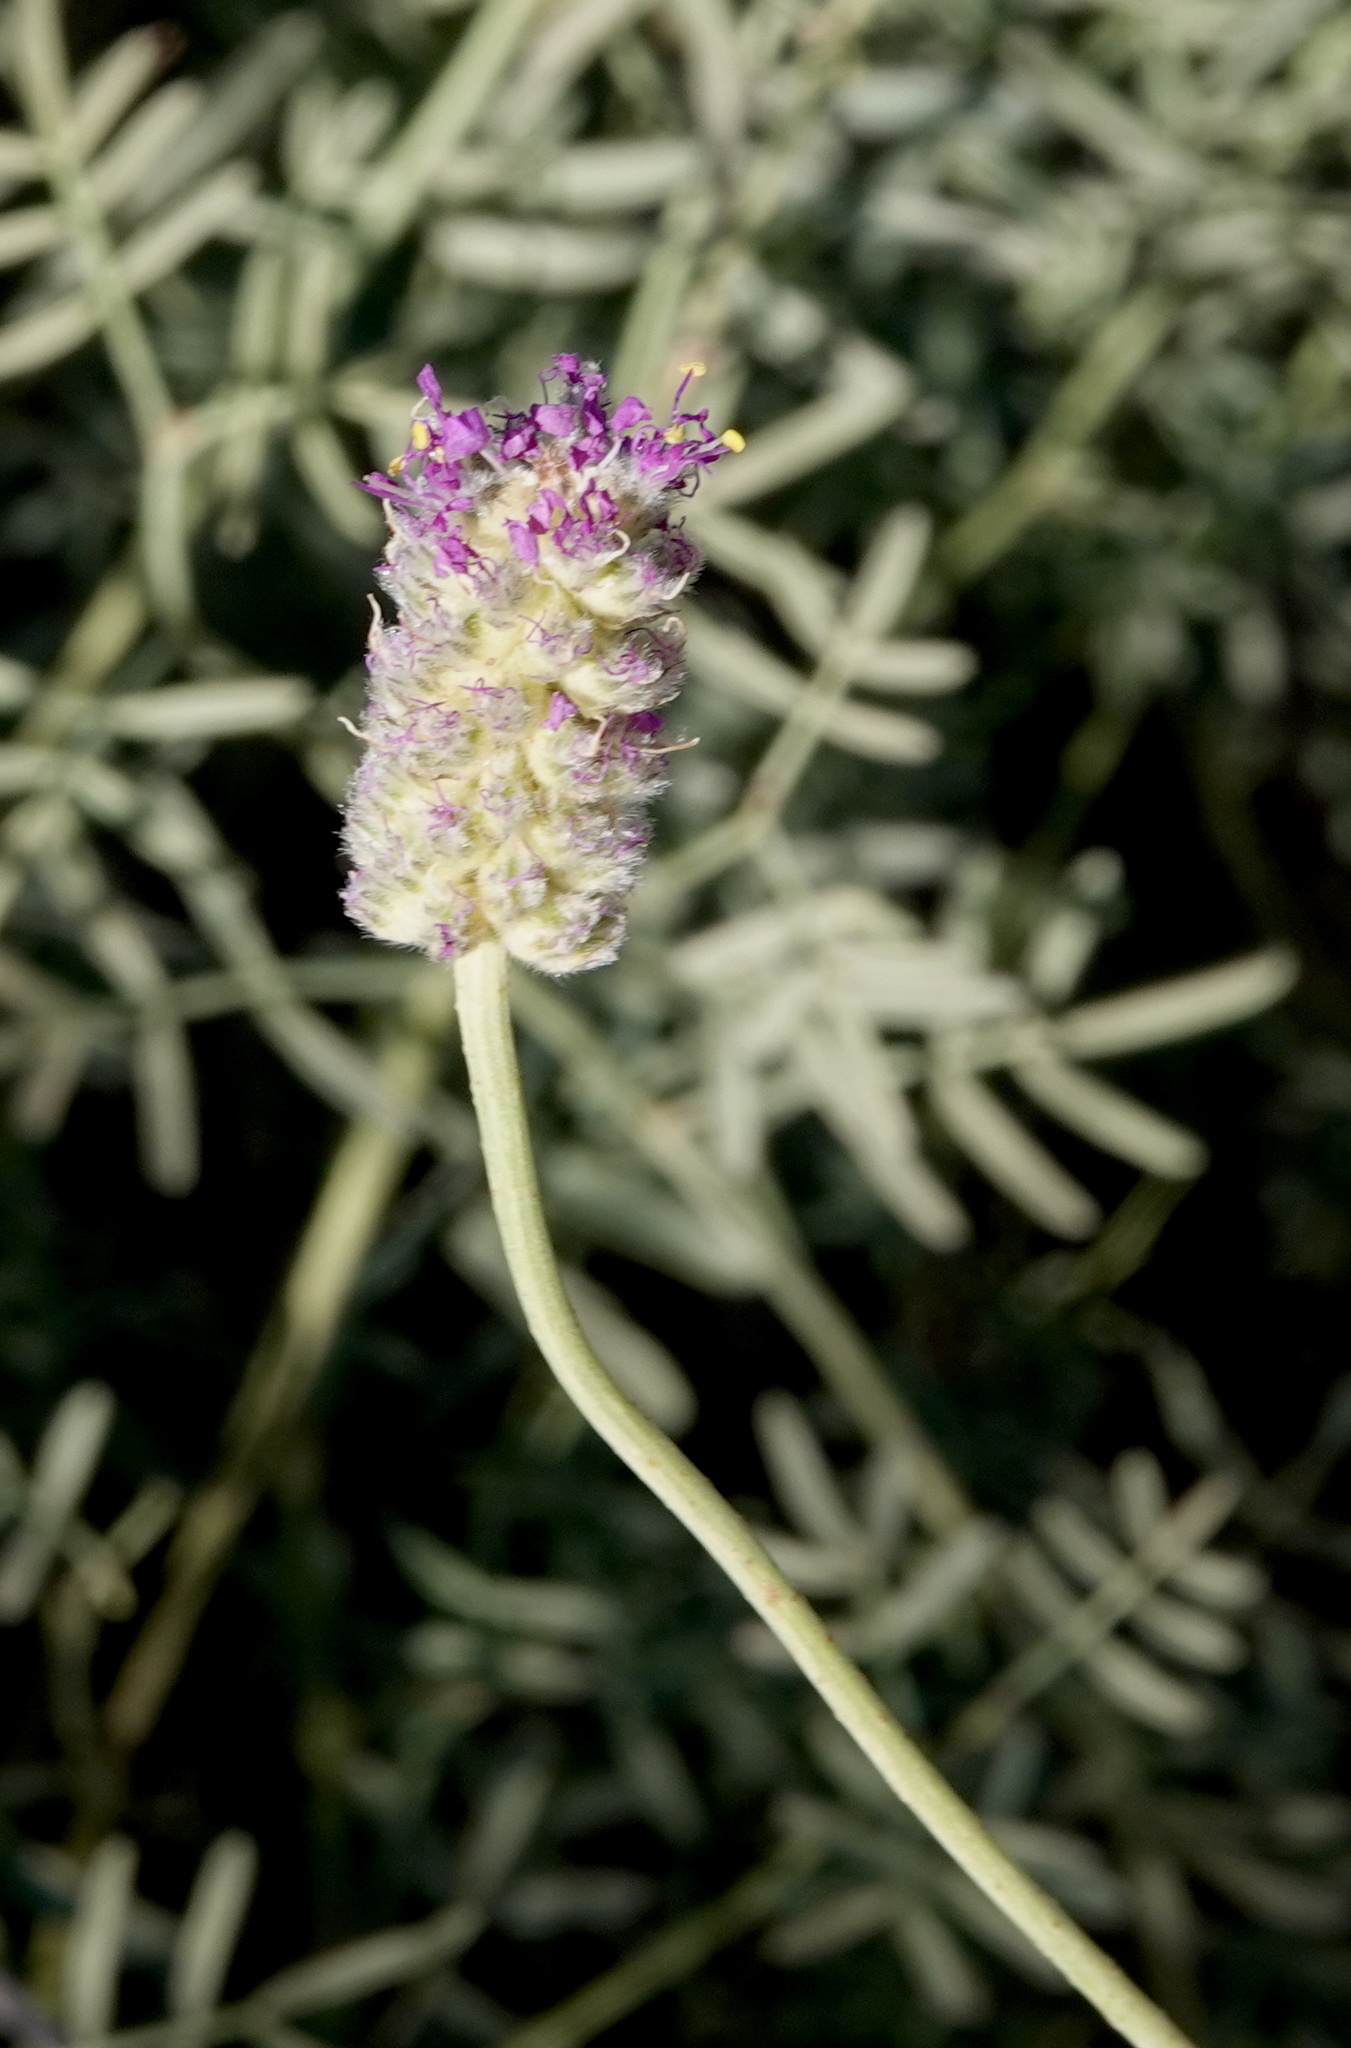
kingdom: Plantae
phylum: Tracheophyta
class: Magnoliopsida
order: Fabales
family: Fabaceae
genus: Dalea
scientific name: Dalea searlsiae
